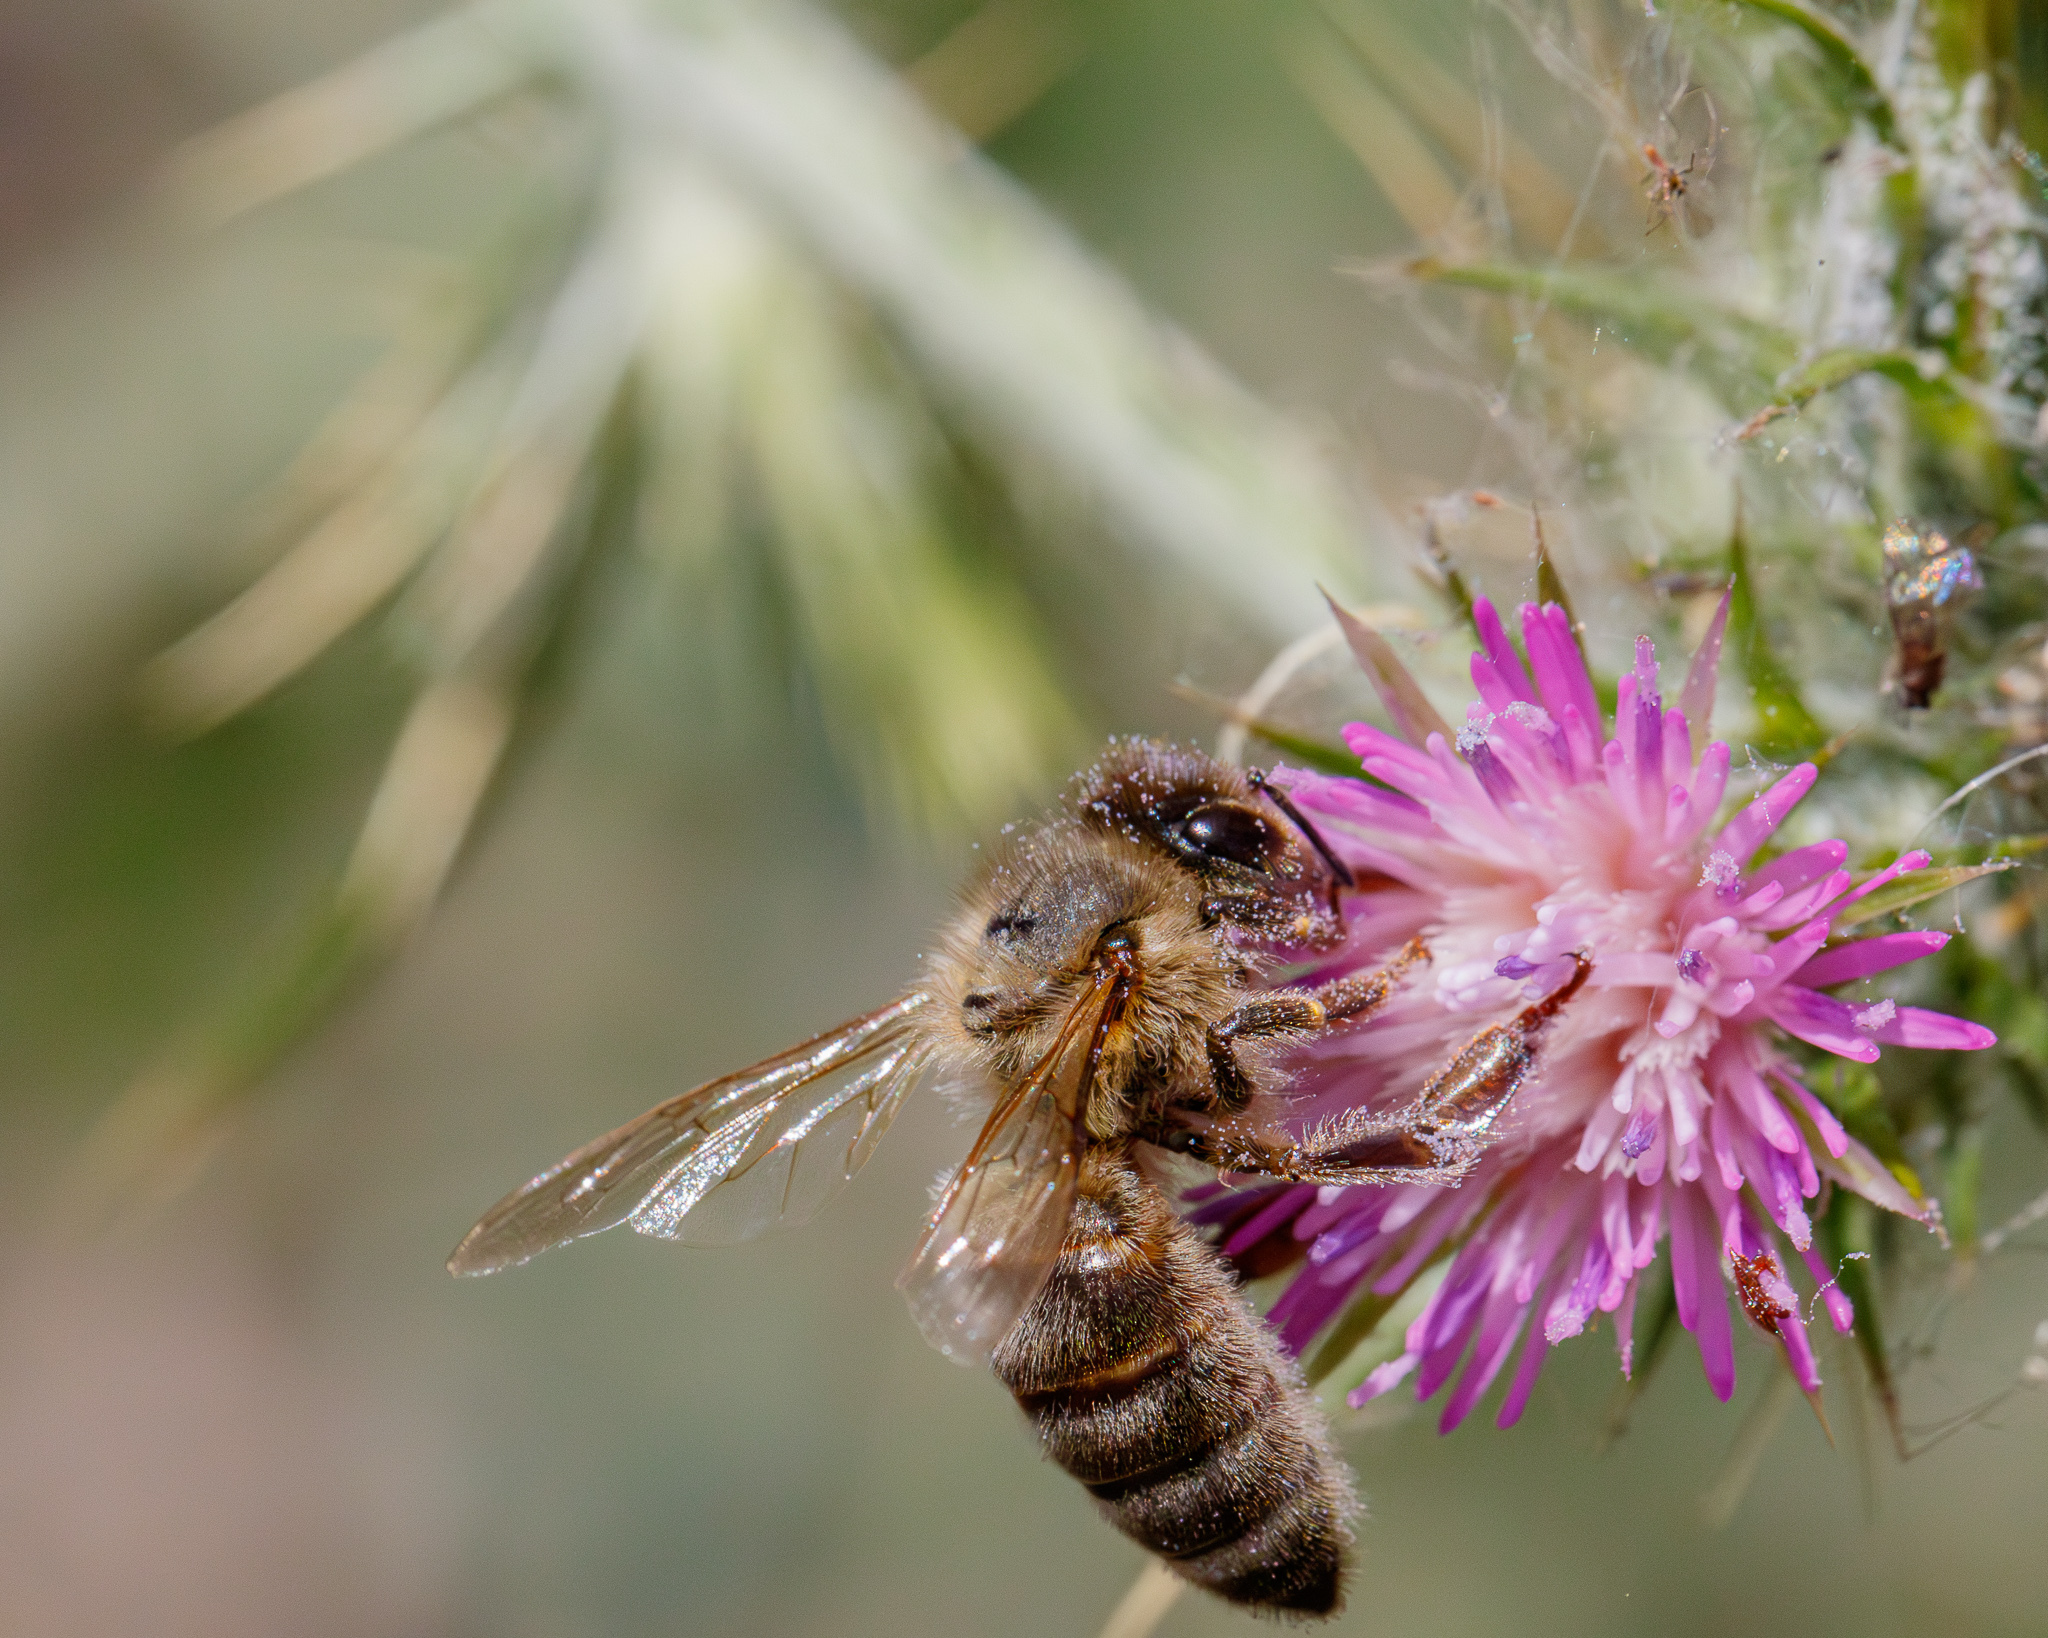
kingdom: Animalia
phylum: Arthropoda
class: Insecta
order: Hymenoptera
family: Apidae
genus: Apis
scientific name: Apis mellifera
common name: Honey bee
